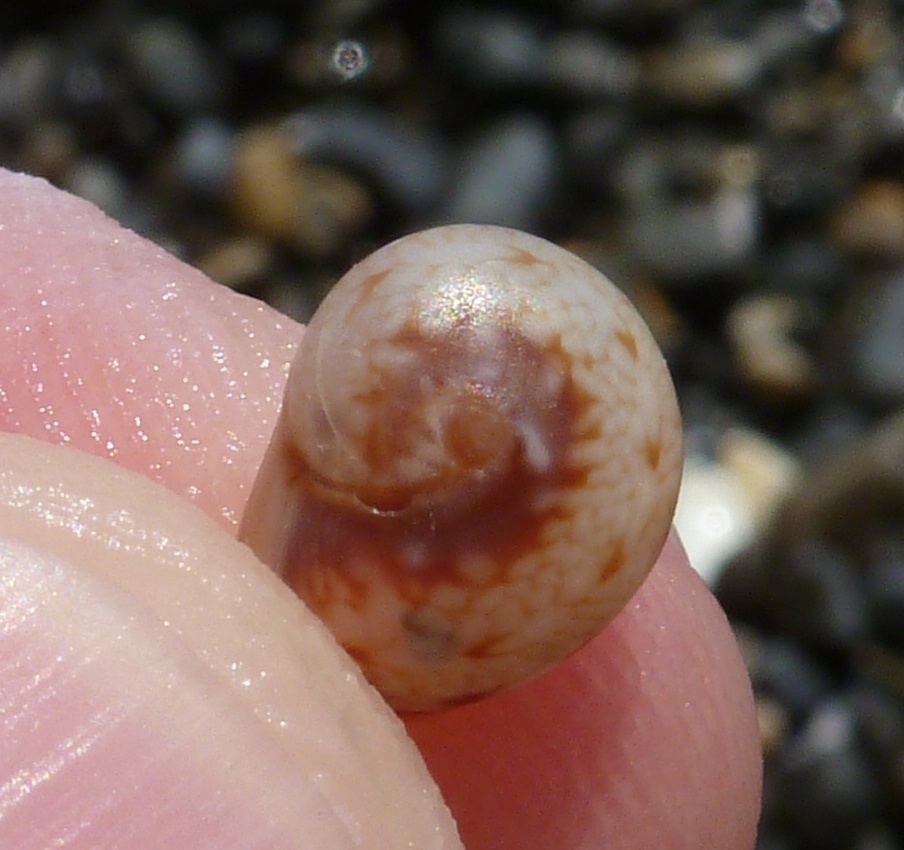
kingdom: Animalia
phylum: Mollusca
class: Gastropoda
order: Neogastropoda
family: Nassariidae
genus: Tritia
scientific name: Tritia pellucida
